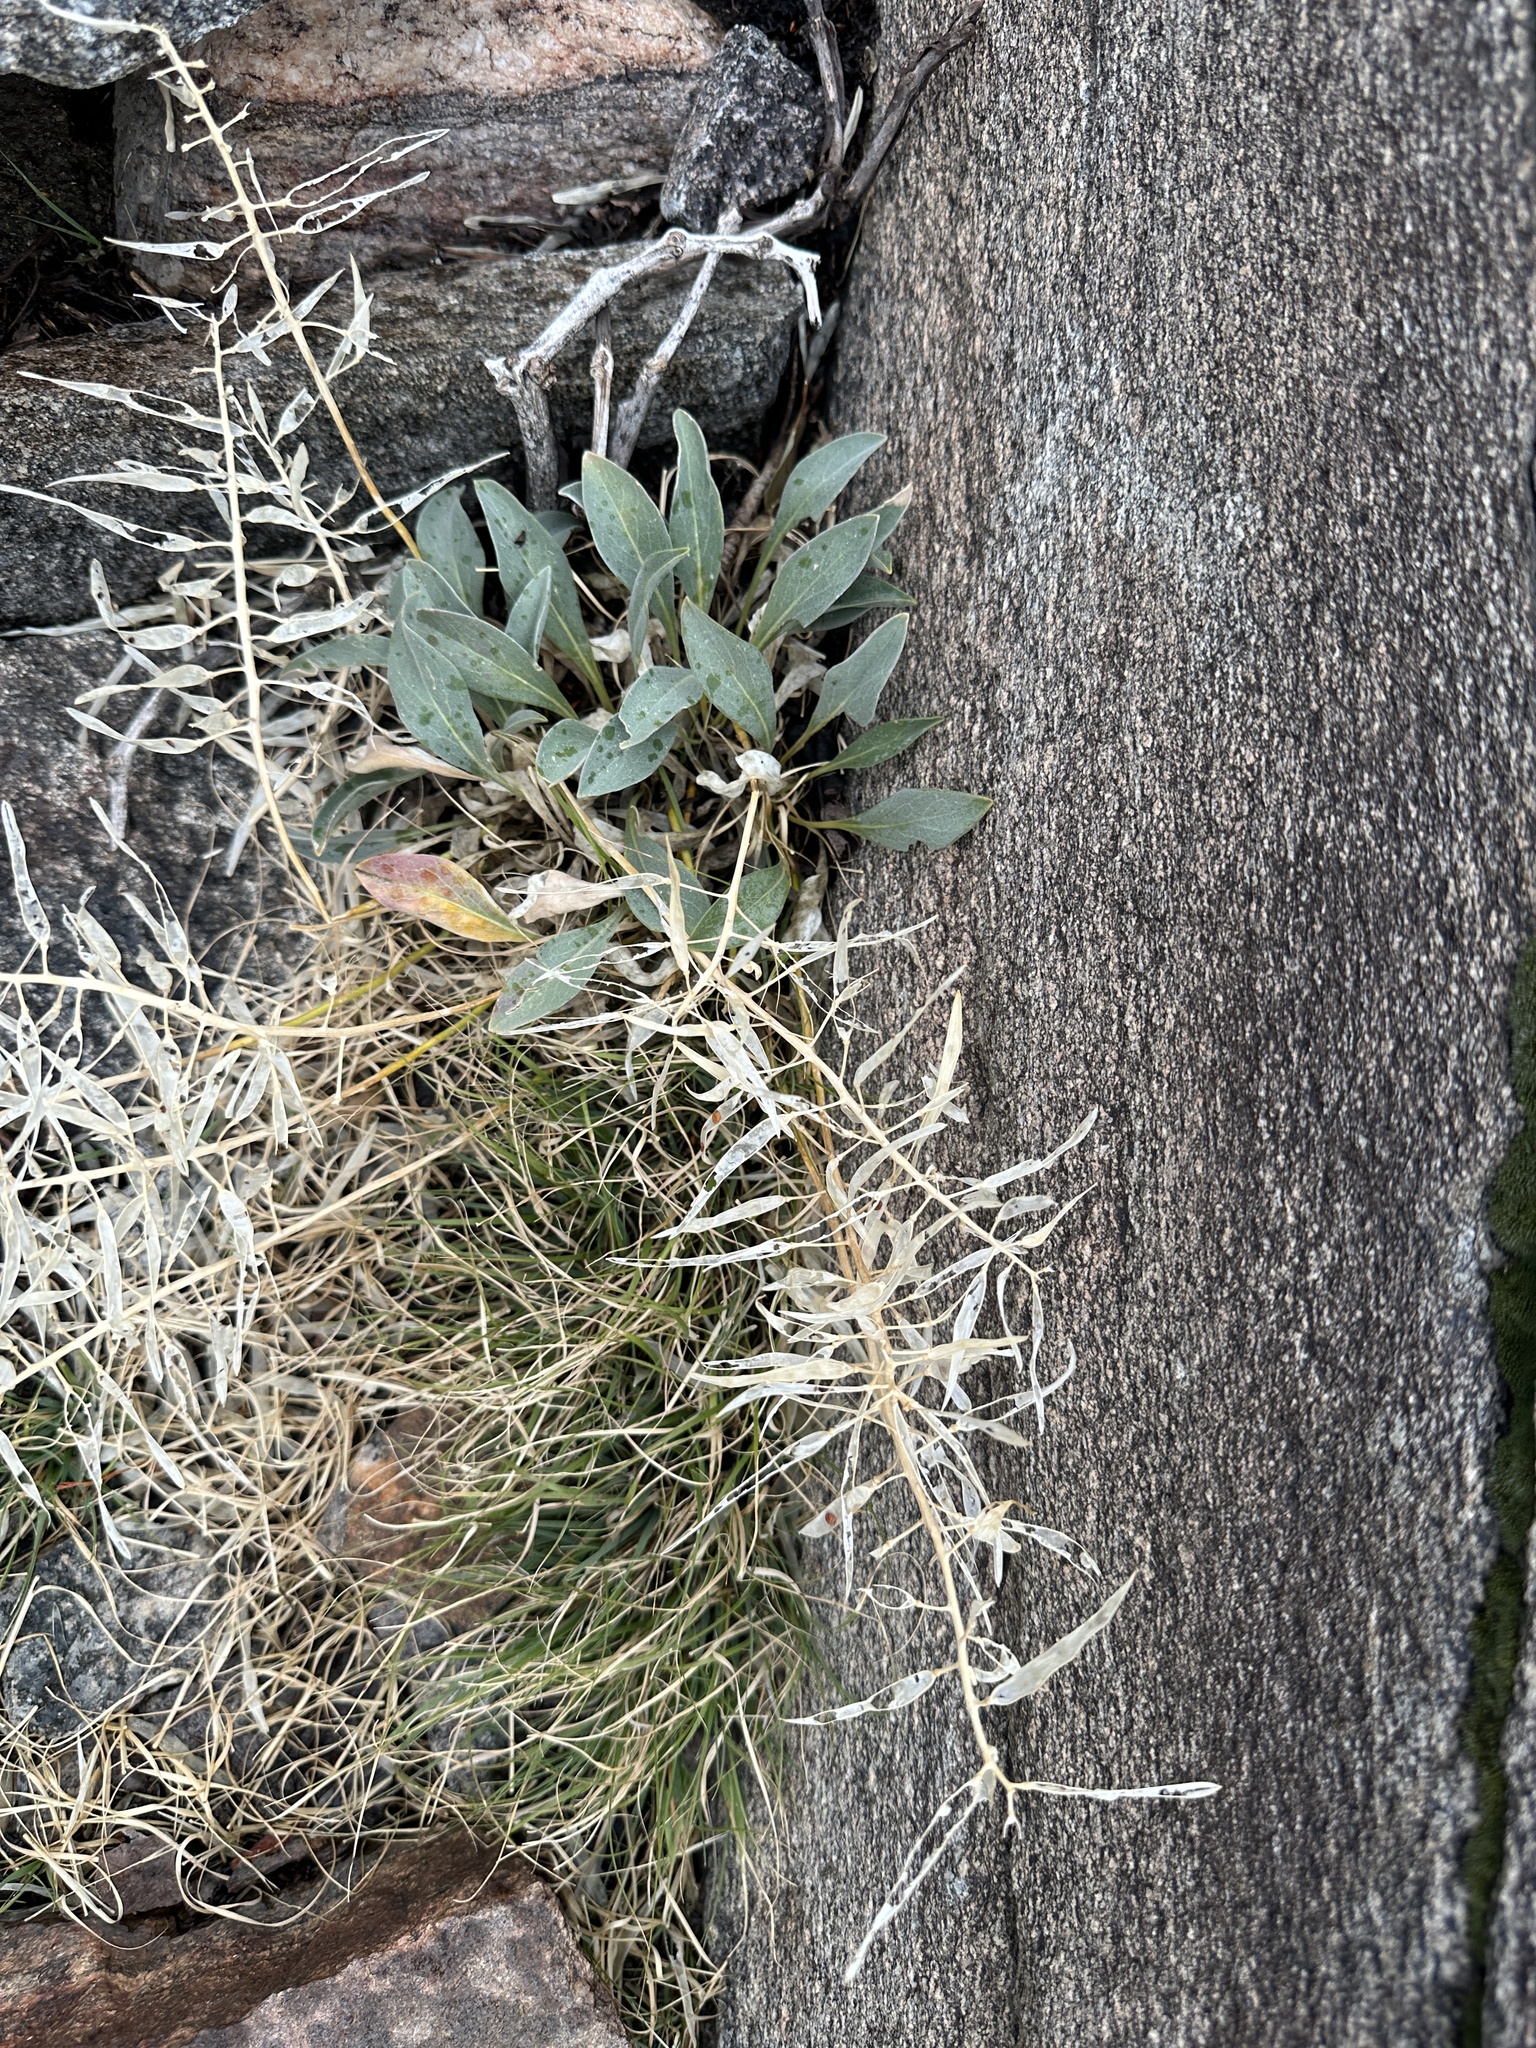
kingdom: Plantae
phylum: Tracheophyta
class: Magnoliopsida
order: Brassicales
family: Brassicaceae
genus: Phoenicaulis
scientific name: Phoenicaulis cheiranthoides
